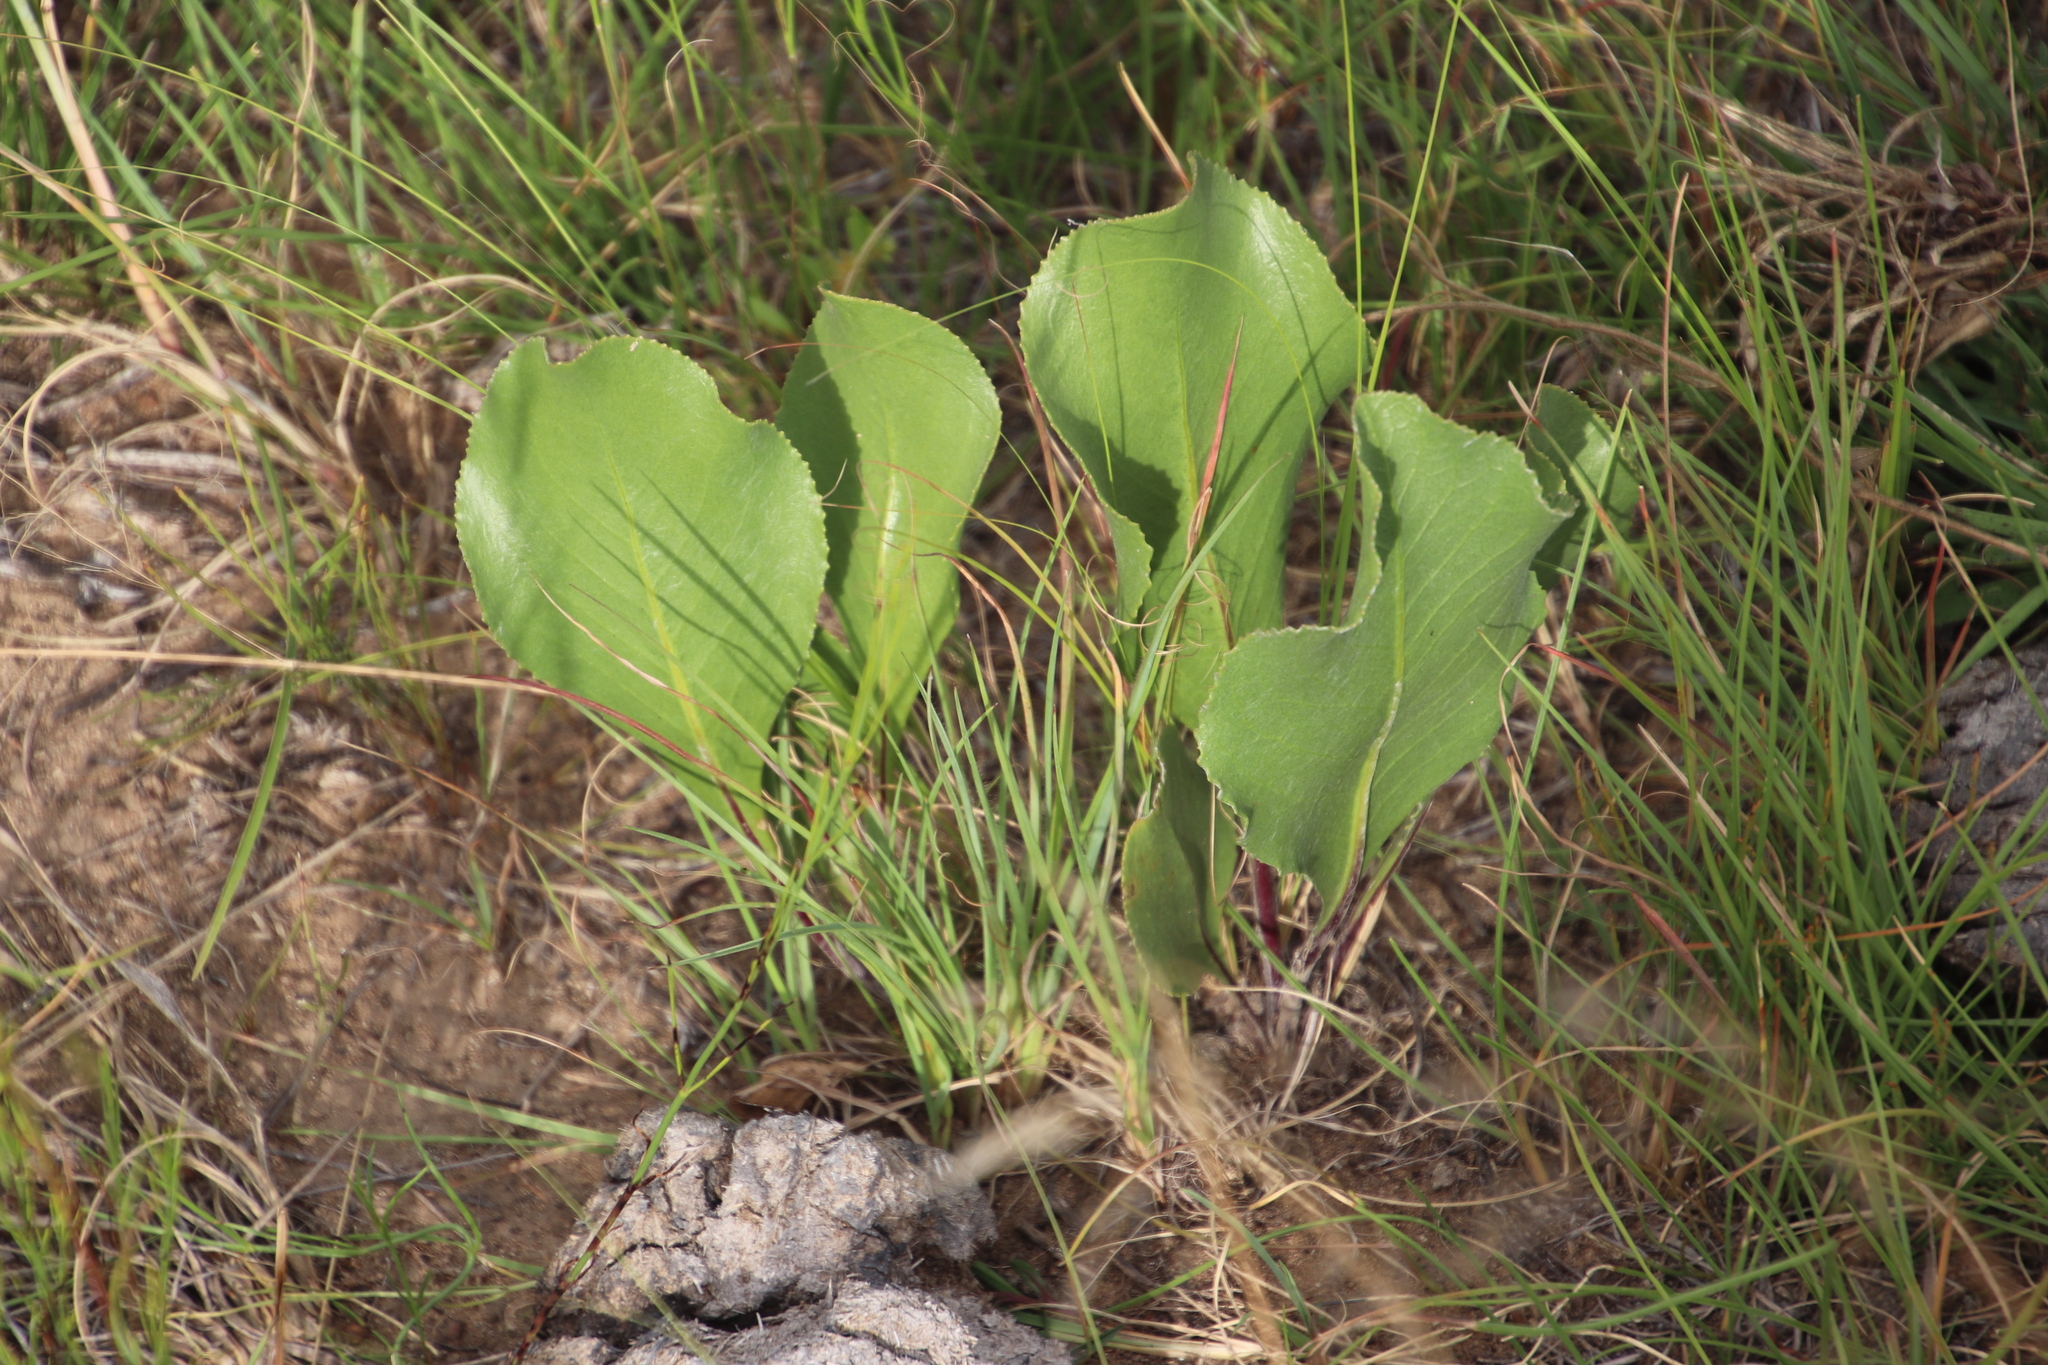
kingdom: Plantae
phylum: Tracheophyta
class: Magnoliopsida
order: Asterales
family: Asteraceae
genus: Senecio
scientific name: Senecio coronatus
